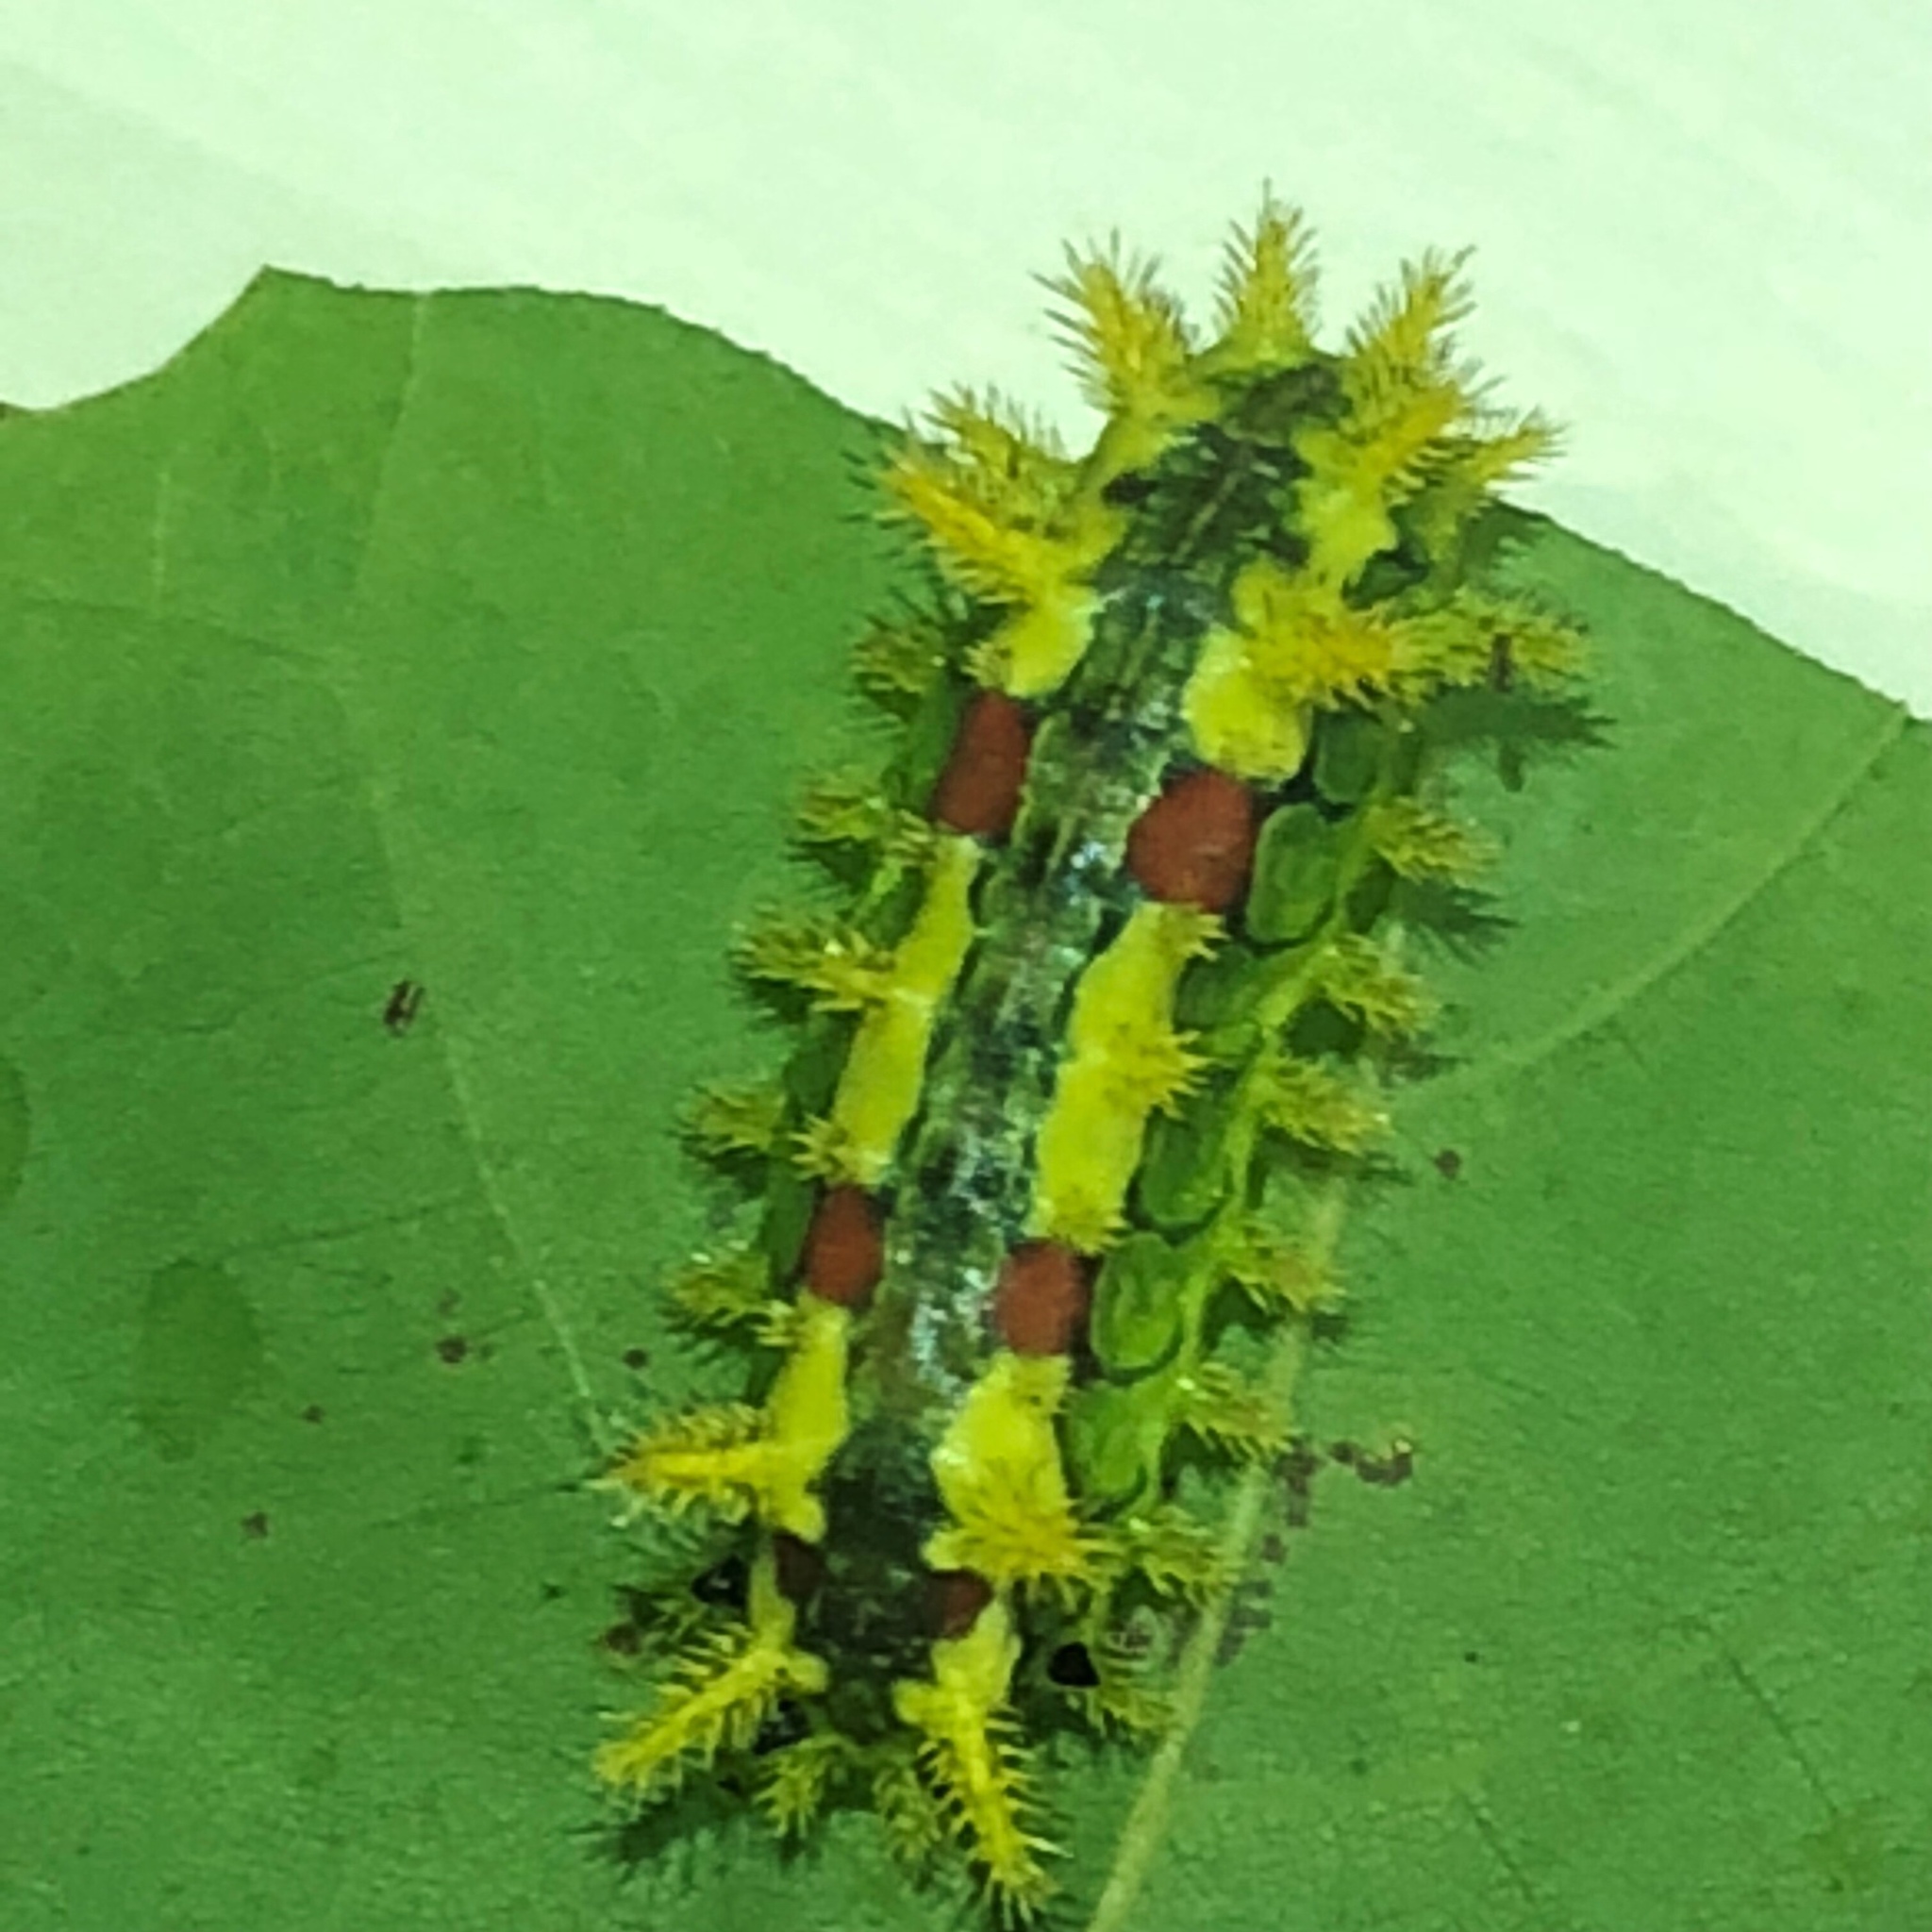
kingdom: Animalia
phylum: Arthropoda
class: Insecta
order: Lepidoptera
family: Limacodidae
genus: Euclea
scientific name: Euclea delphinii
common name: Spiny oak-slug moth
